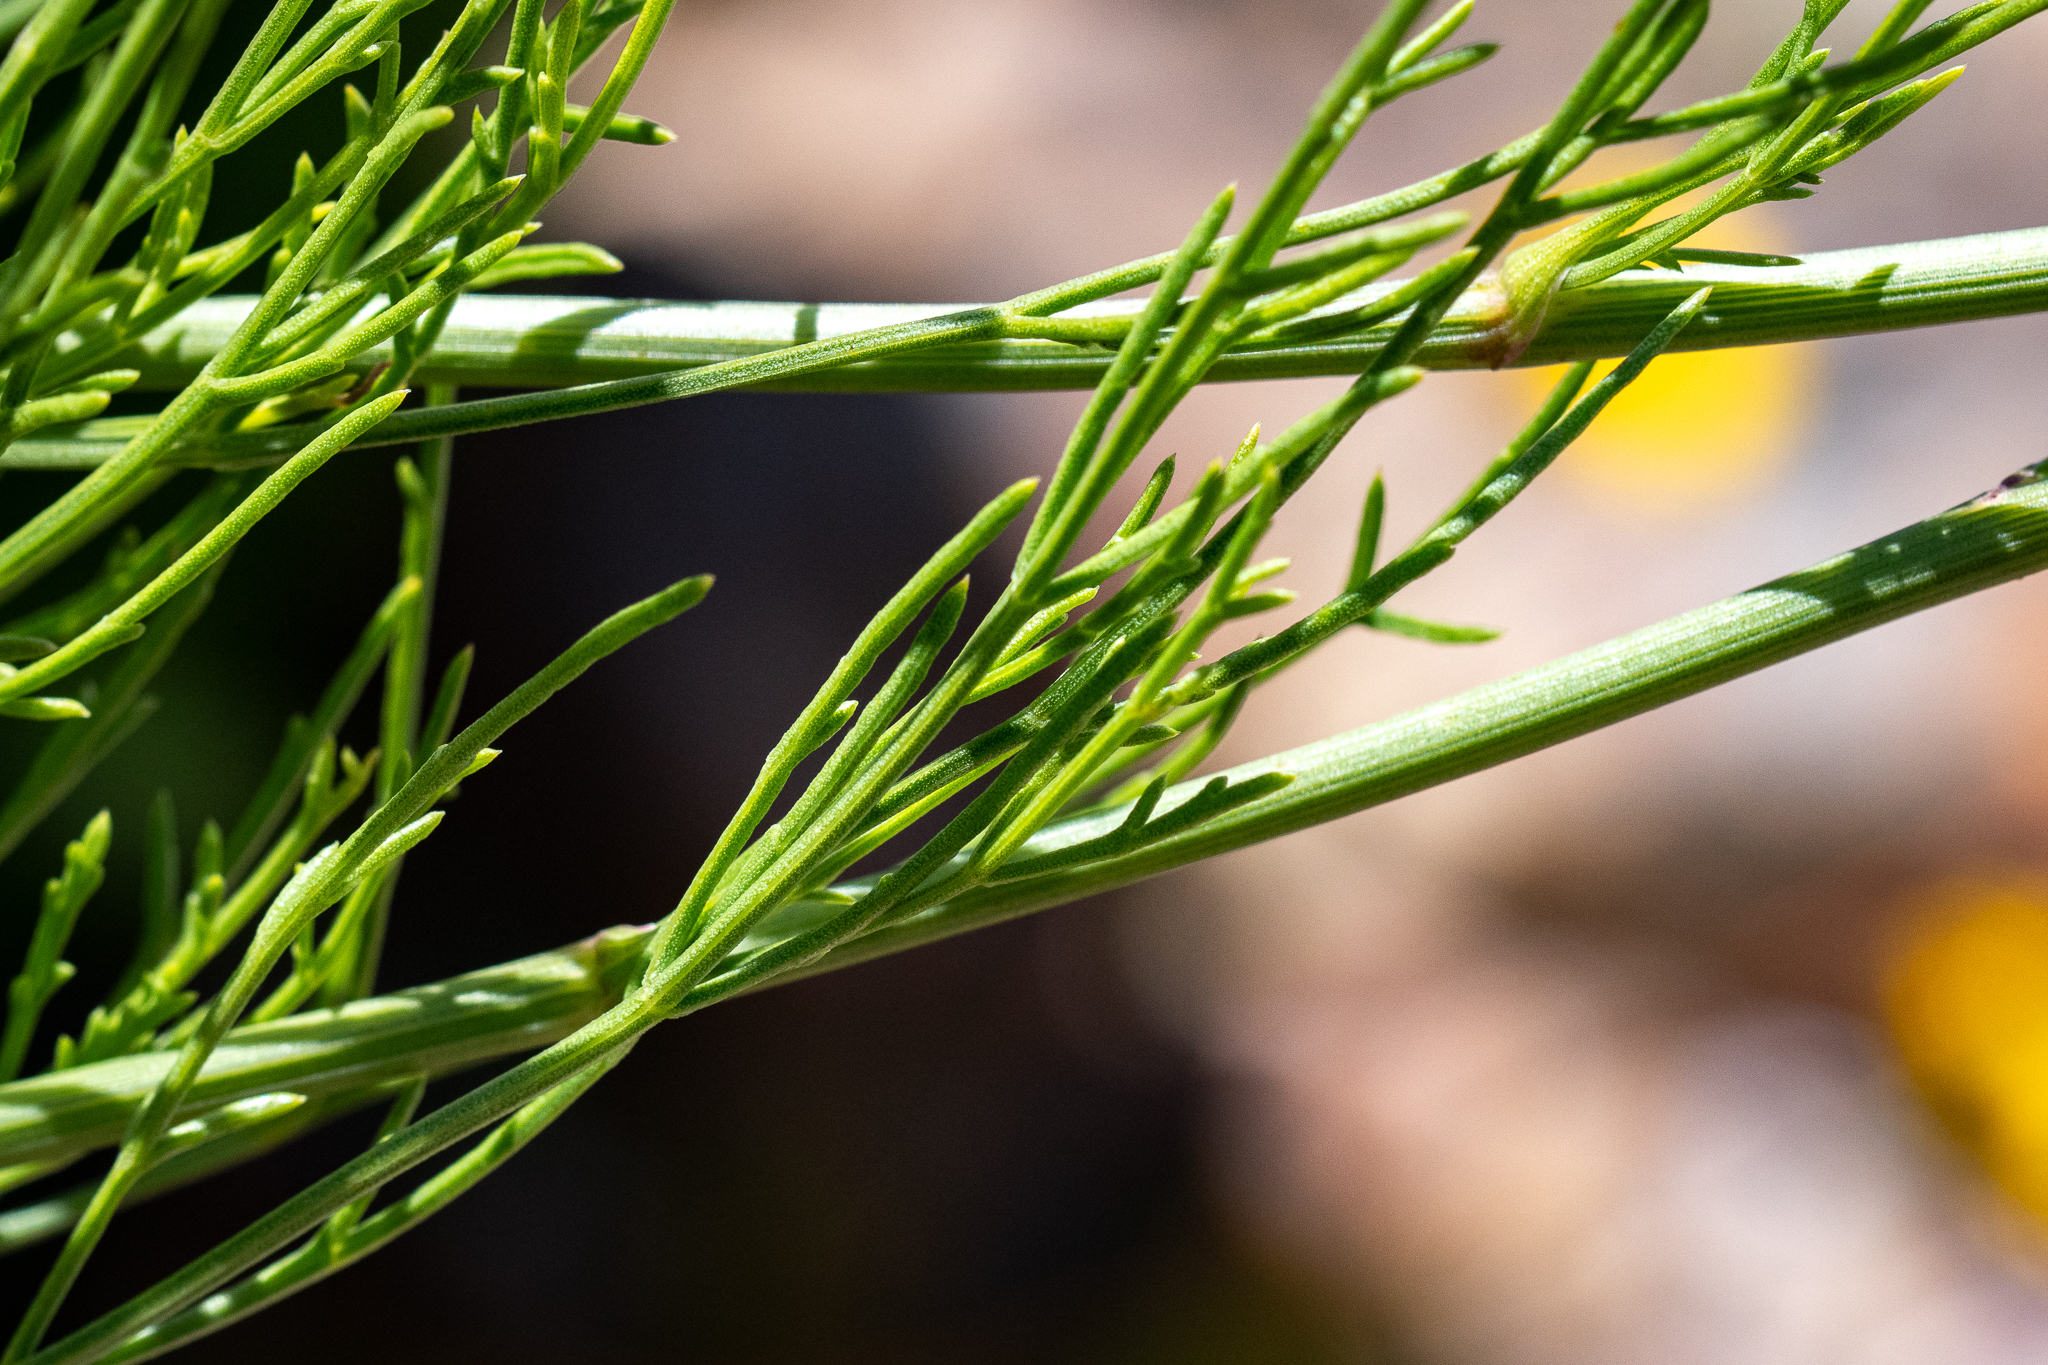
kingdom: Plantae
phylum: Tracheophyta
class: Magnoliopsida
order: Apiales
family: Apiaceae
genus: Glia
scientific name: Glia prolifera
